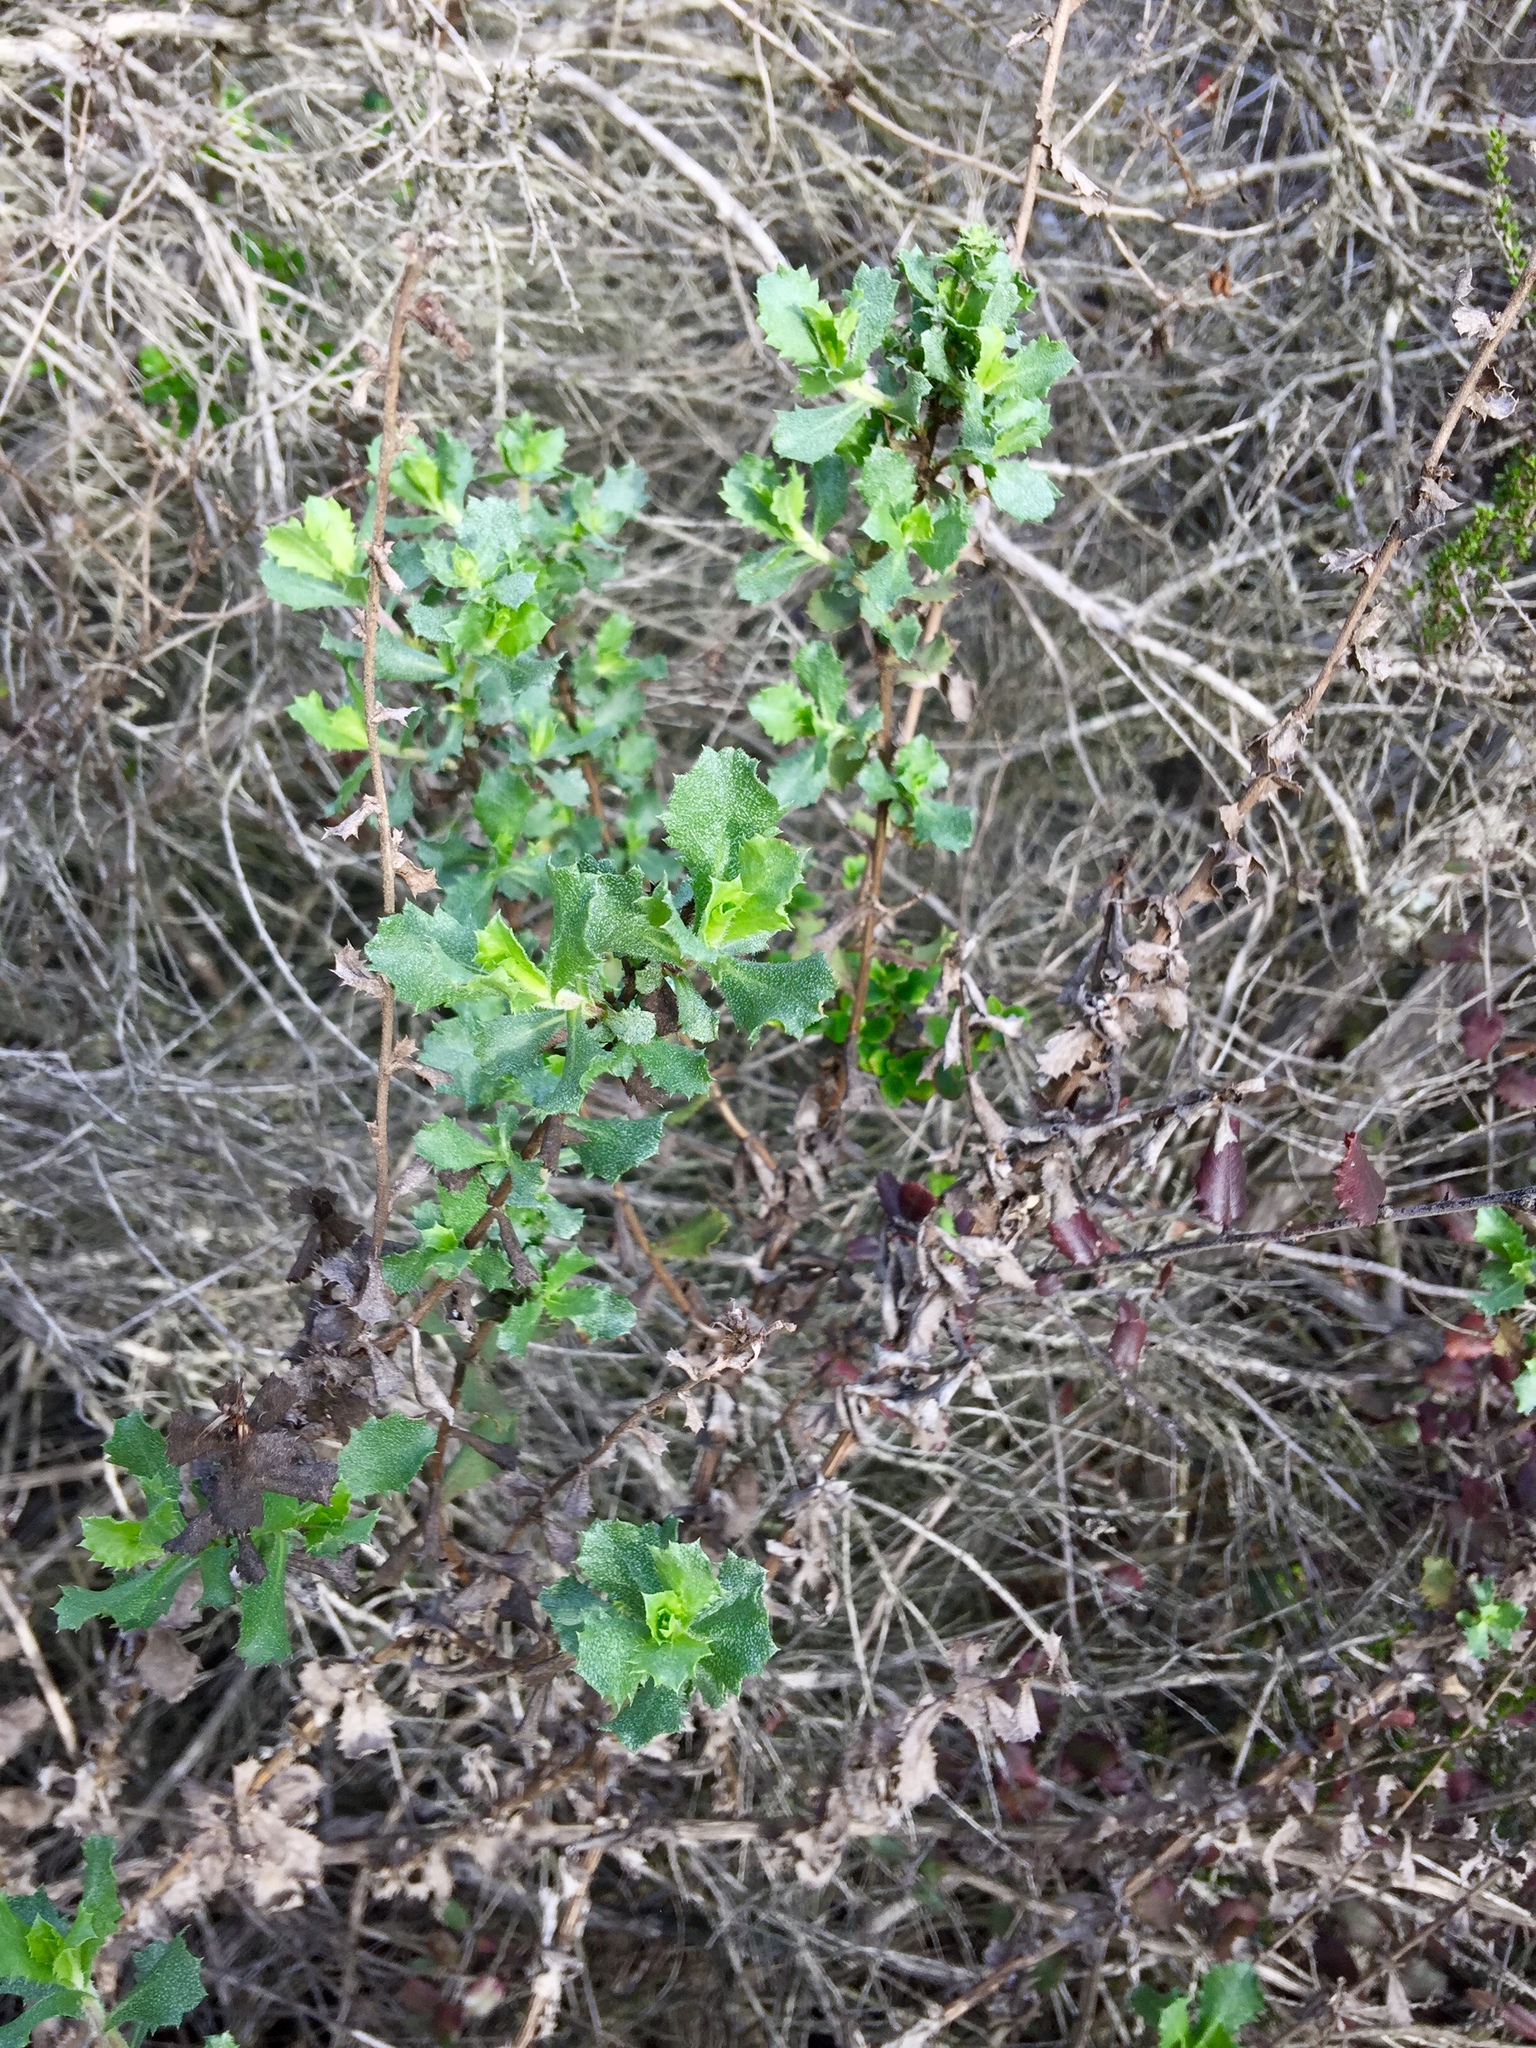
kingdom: Plantae
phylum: Tracheophyta
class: Magnoliopsida
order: Asterales
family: Asteraceae
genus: Hazardia
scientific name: Hazardia squarrosa
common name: Saw-tooth goldenbush
